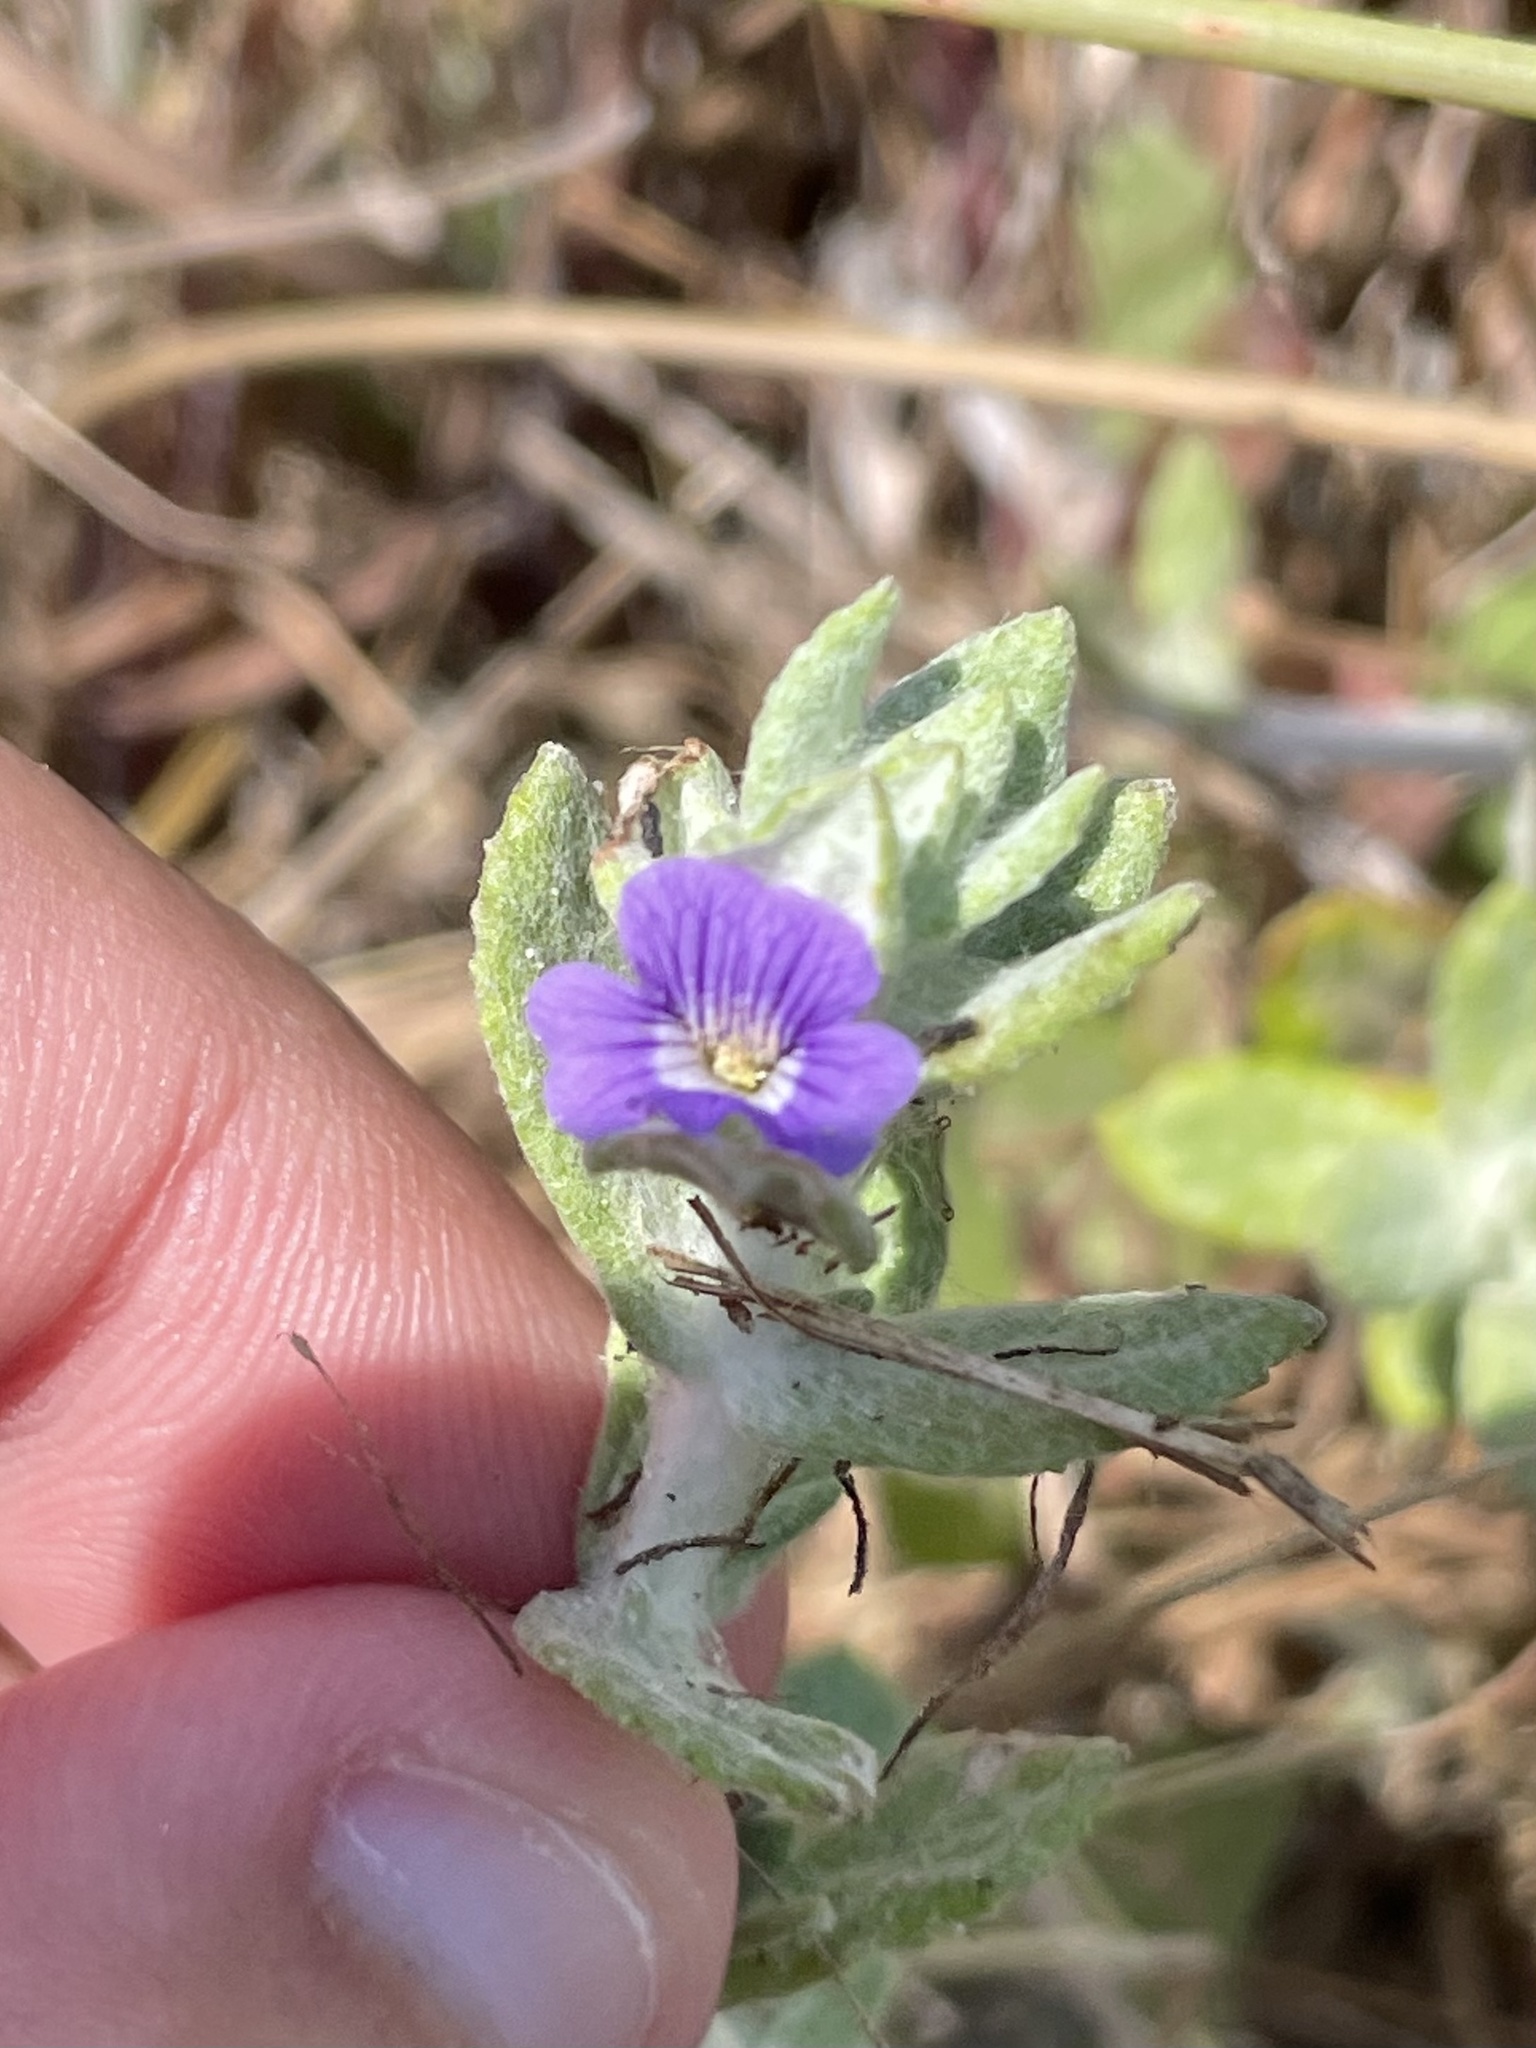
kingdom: Plantae
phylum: Tracheophyta
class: Magnoliopsida
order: Lamiales
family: Plantaginaceae
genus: Stemodia
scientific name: Stemodia lanata
